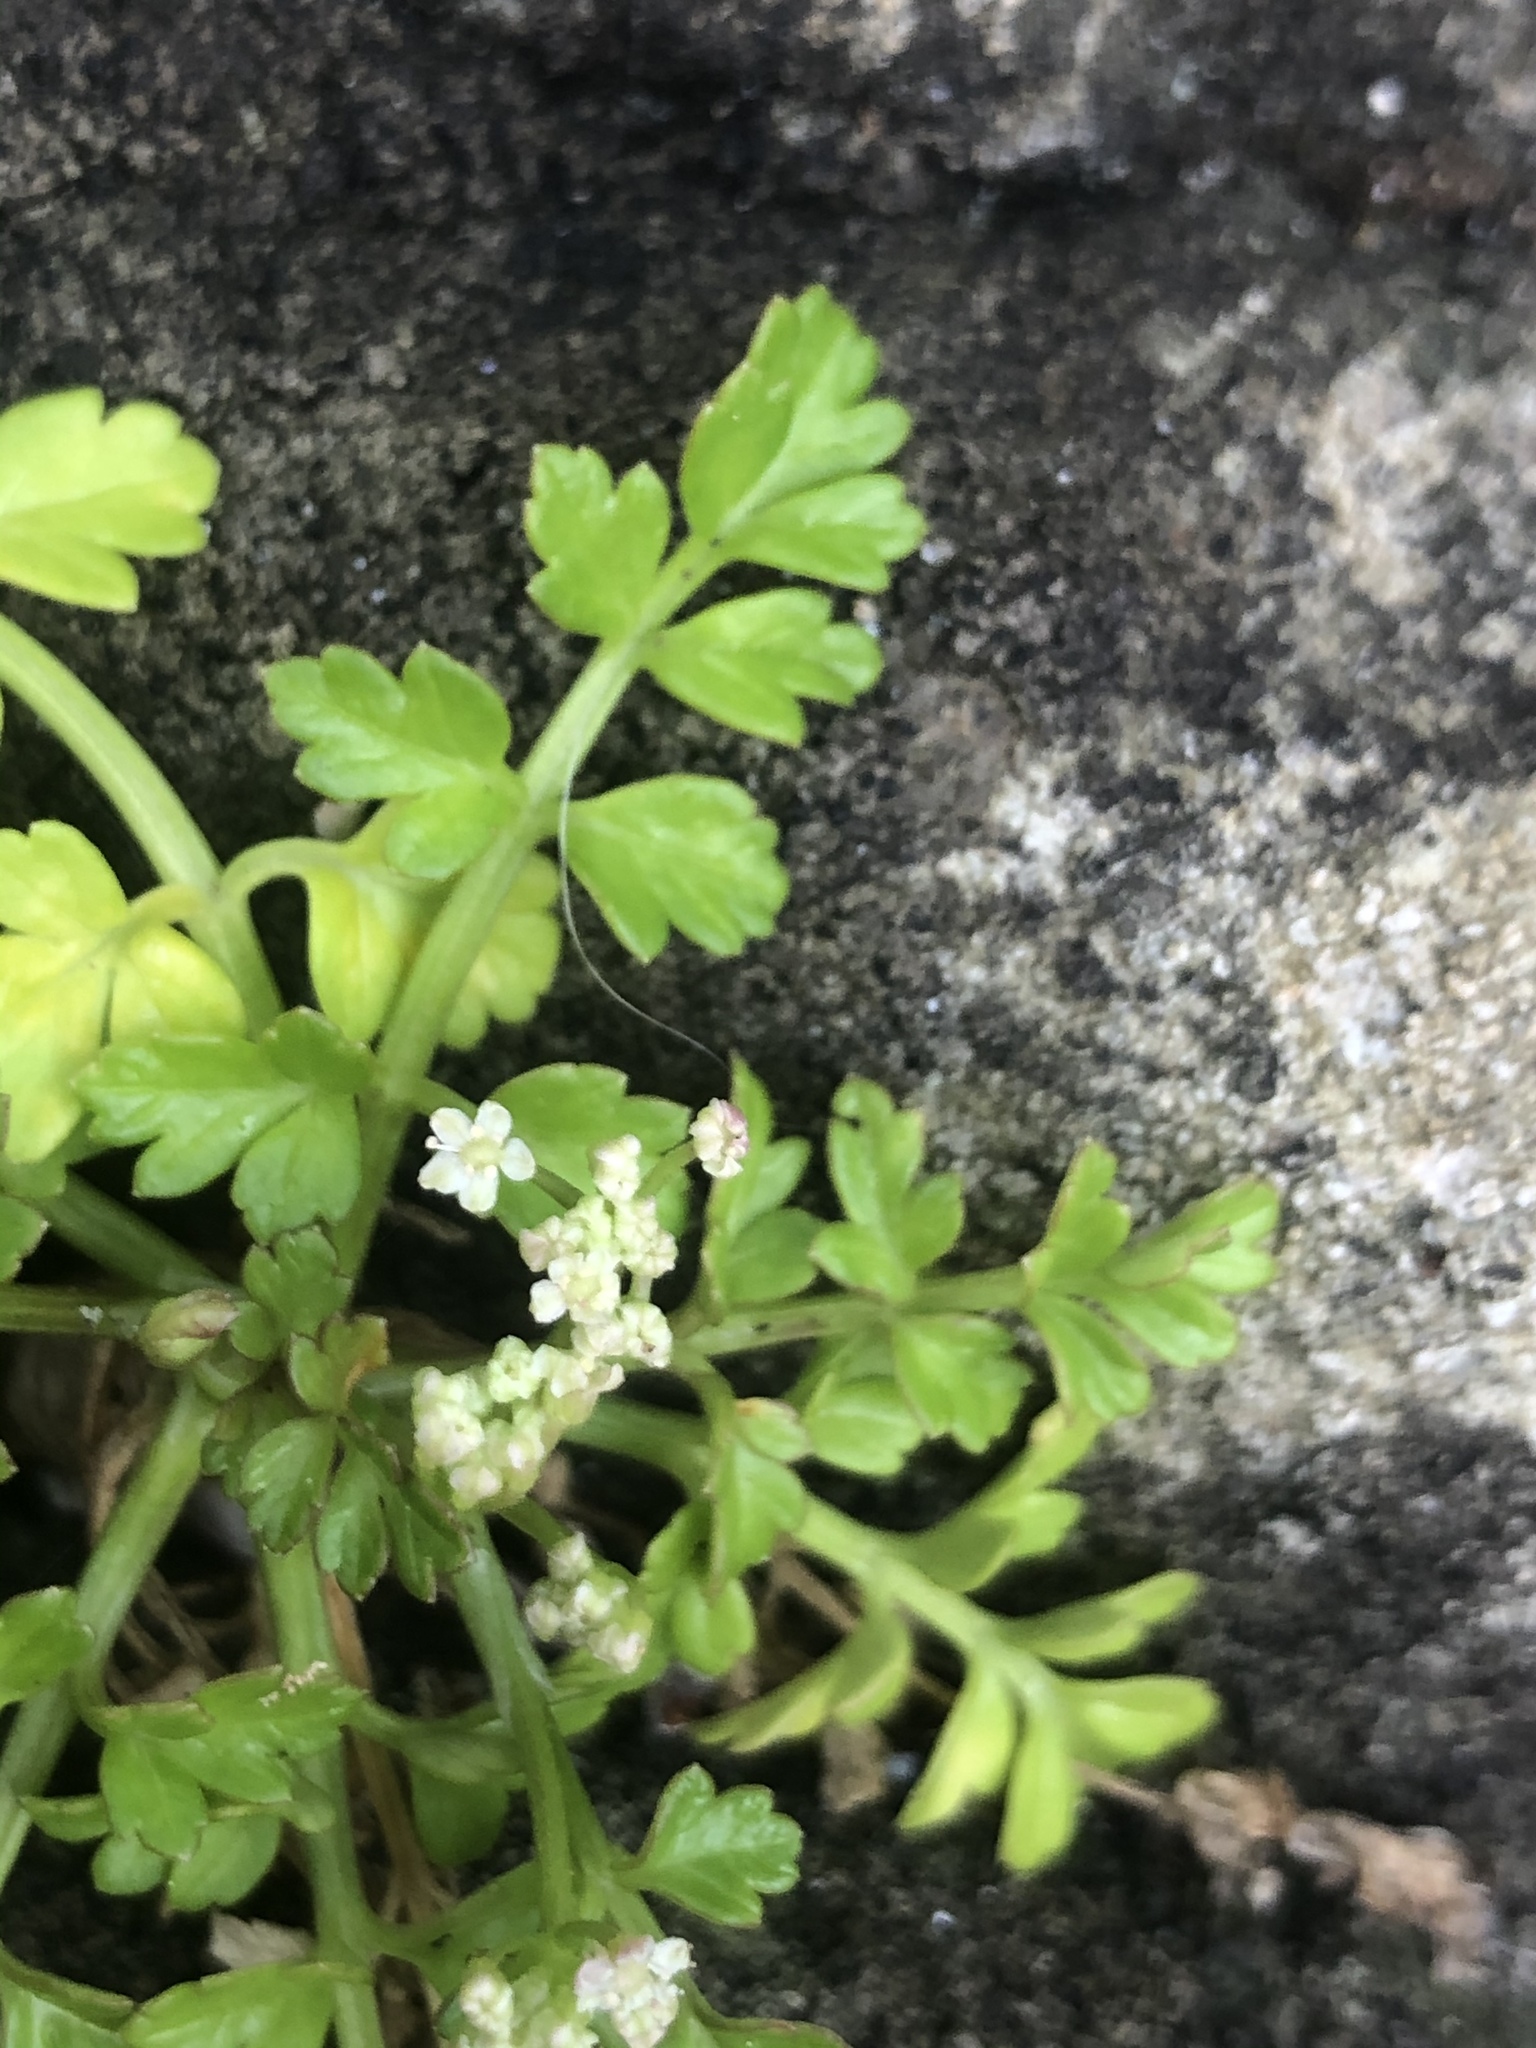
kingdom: Plantae
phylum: Tracheophyta
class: Magnoliopsida
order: Apiales
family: Apiaceae
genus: Apium
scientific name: Apium prostratum
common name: Prostrate marshwort
